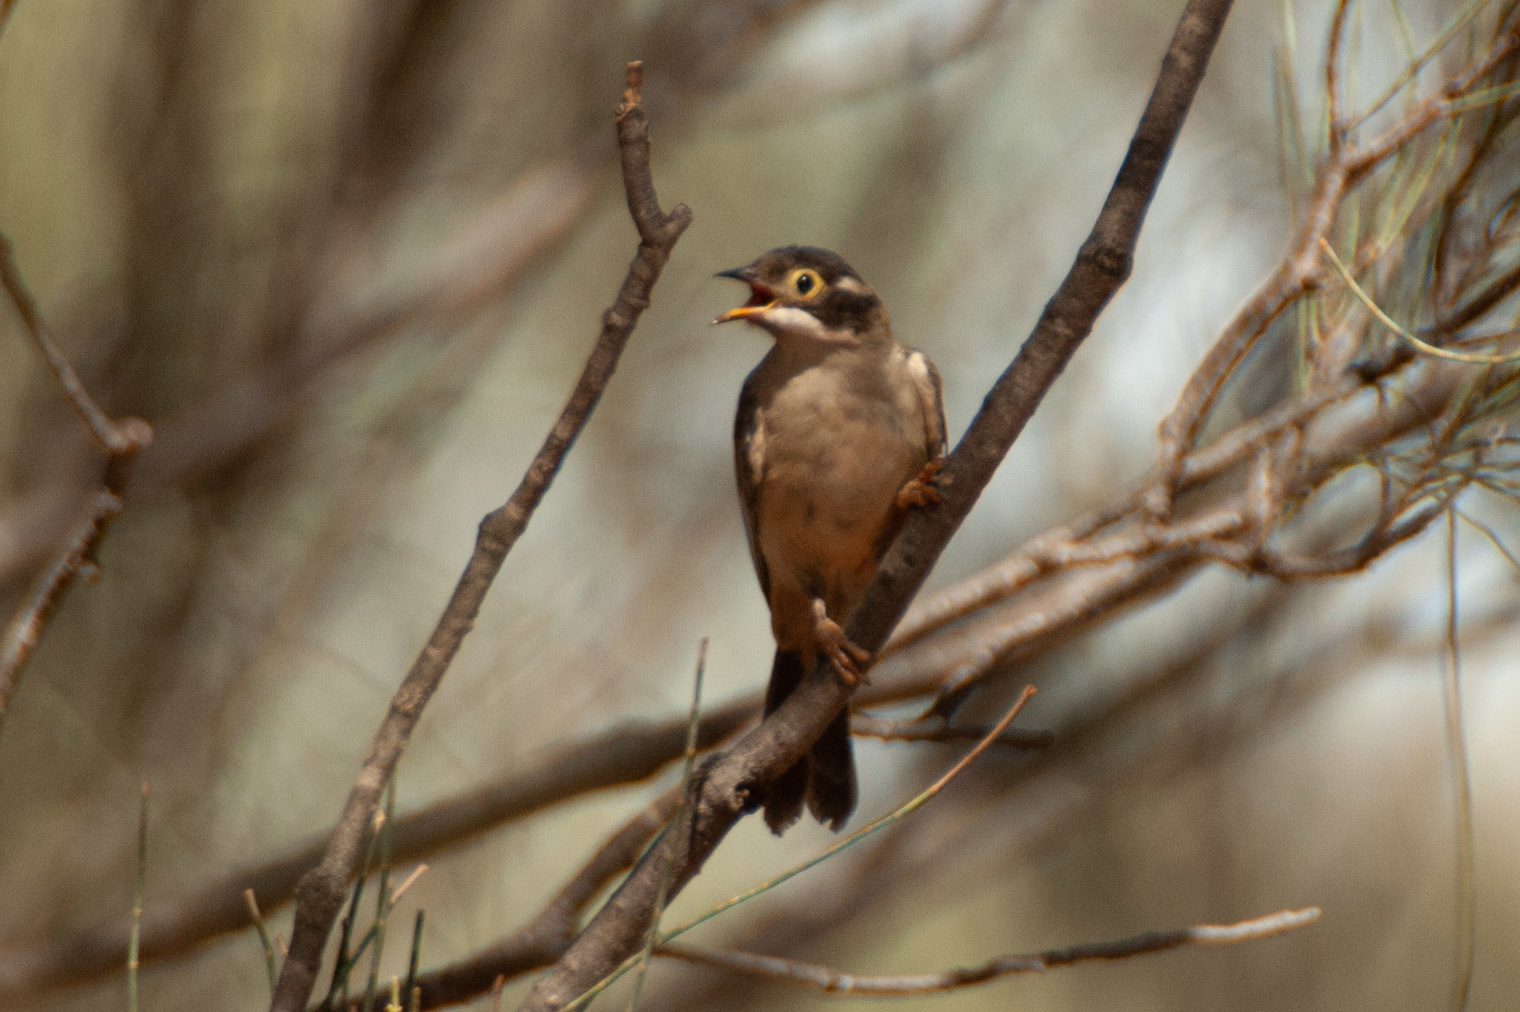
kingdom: Animalia
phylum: Chordata
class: Aves
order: Passeriformes
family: Meliphagidae
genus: Melithreptus
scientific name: Melithreptus brevirostris
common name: Brown-headed honeyeater
